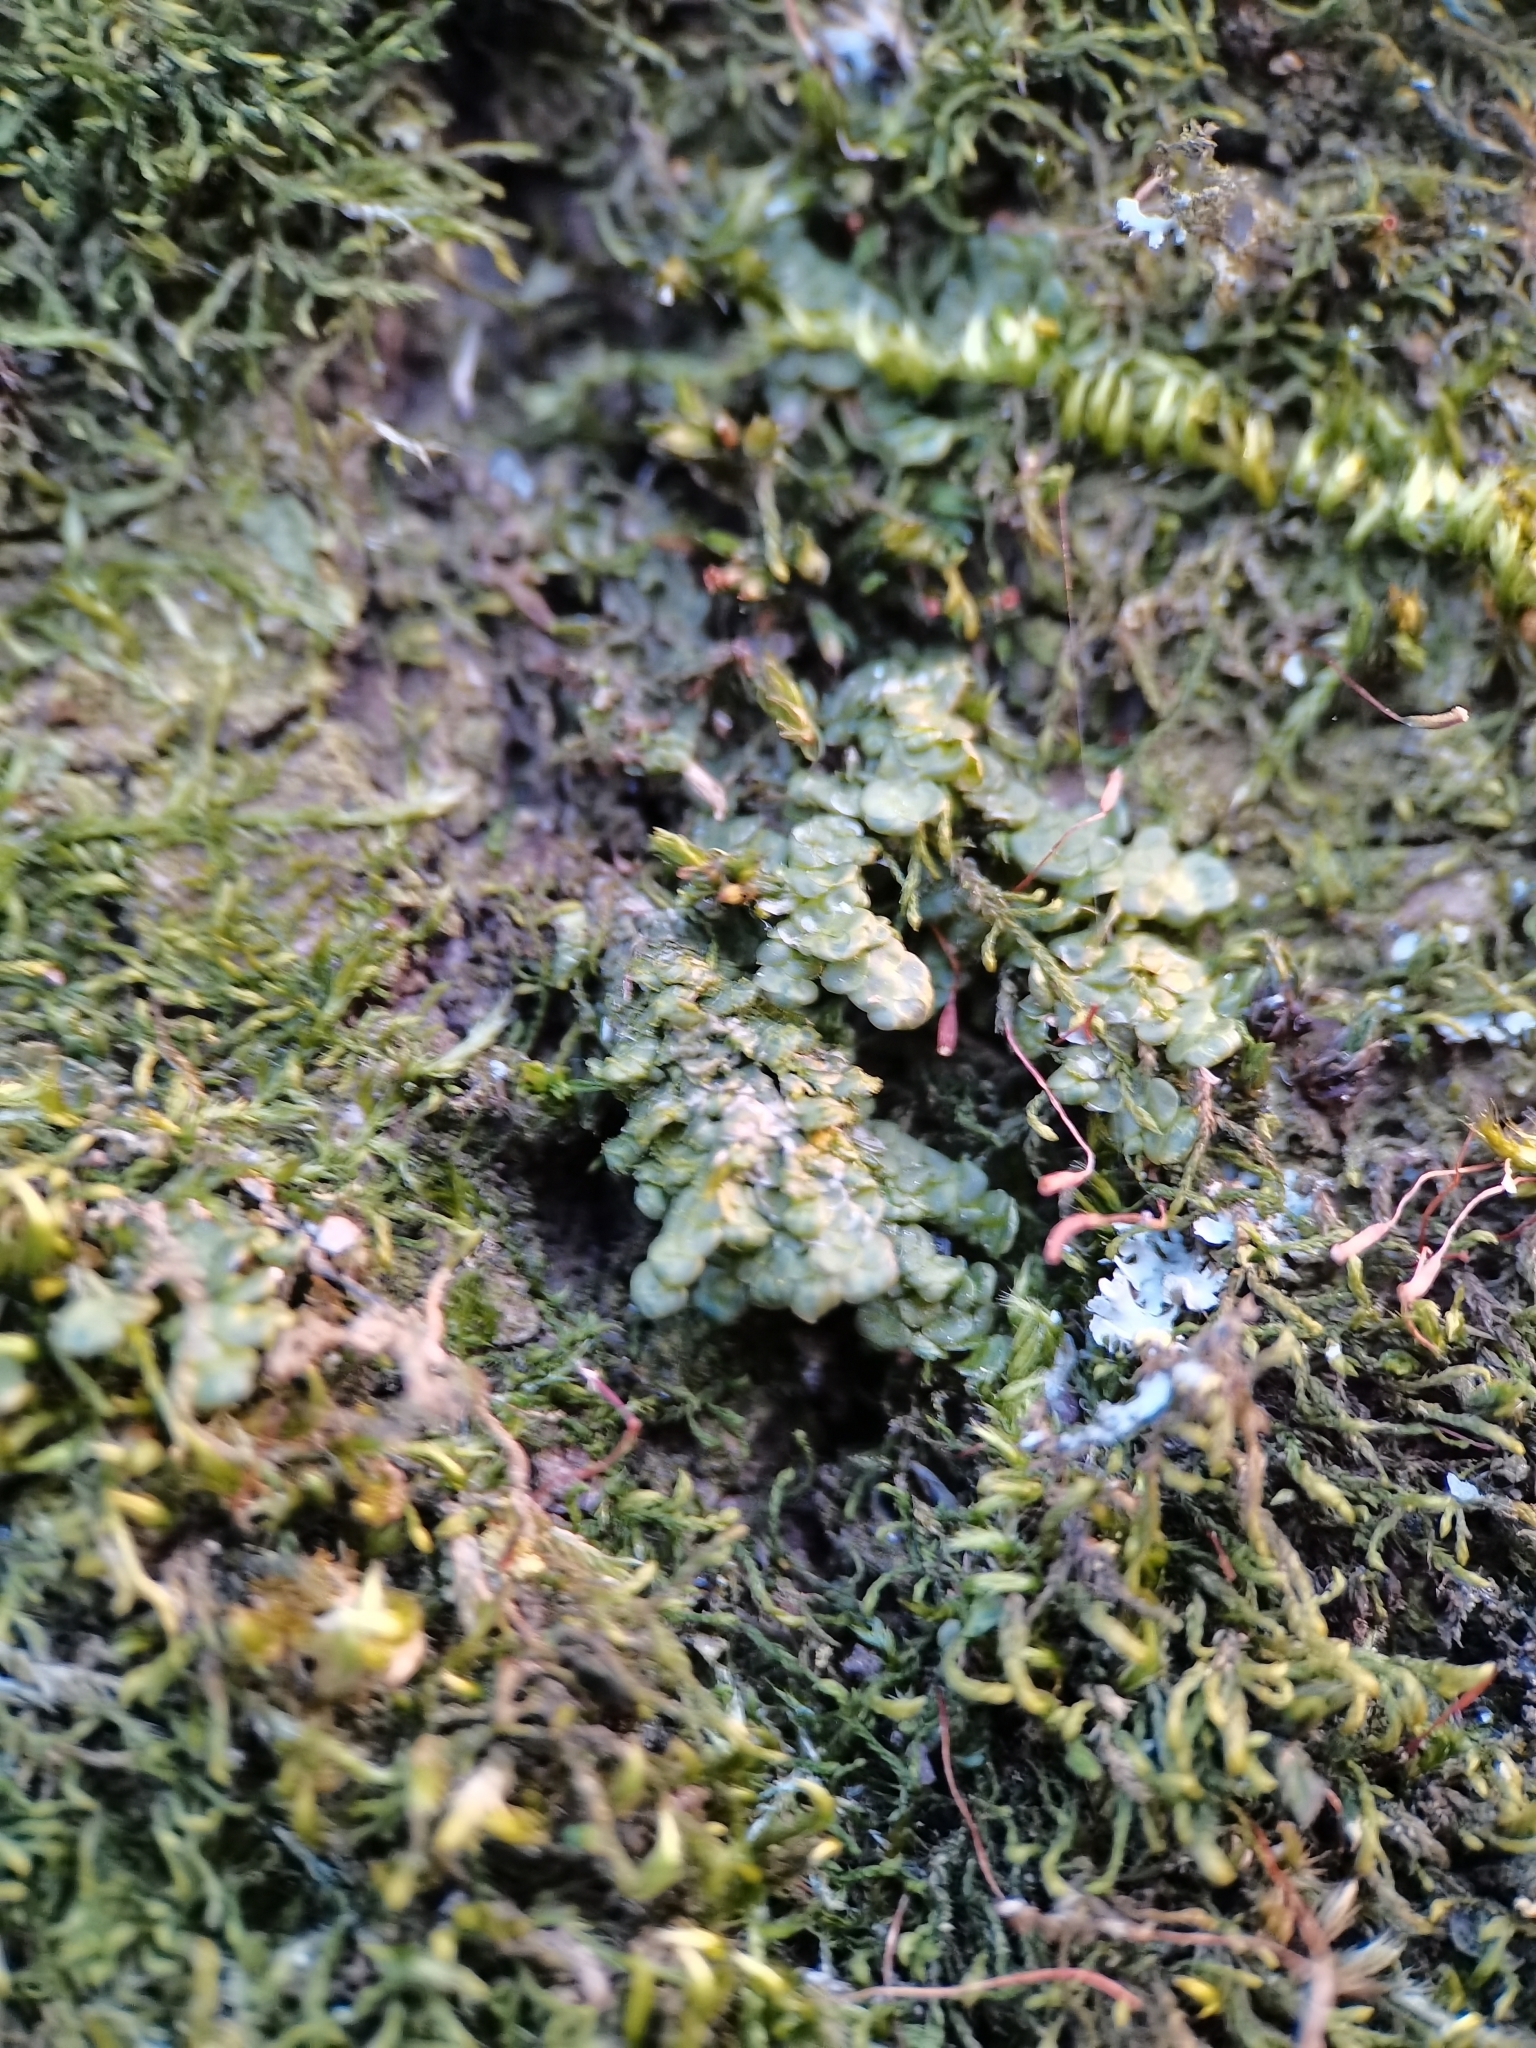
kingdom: Plantae
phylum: Marchantiophyta
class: Jungermanniopsida
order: Porellales
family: Radulaceae
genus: Radula
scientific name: Radula complanata
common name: Flat-leaved scalewort
